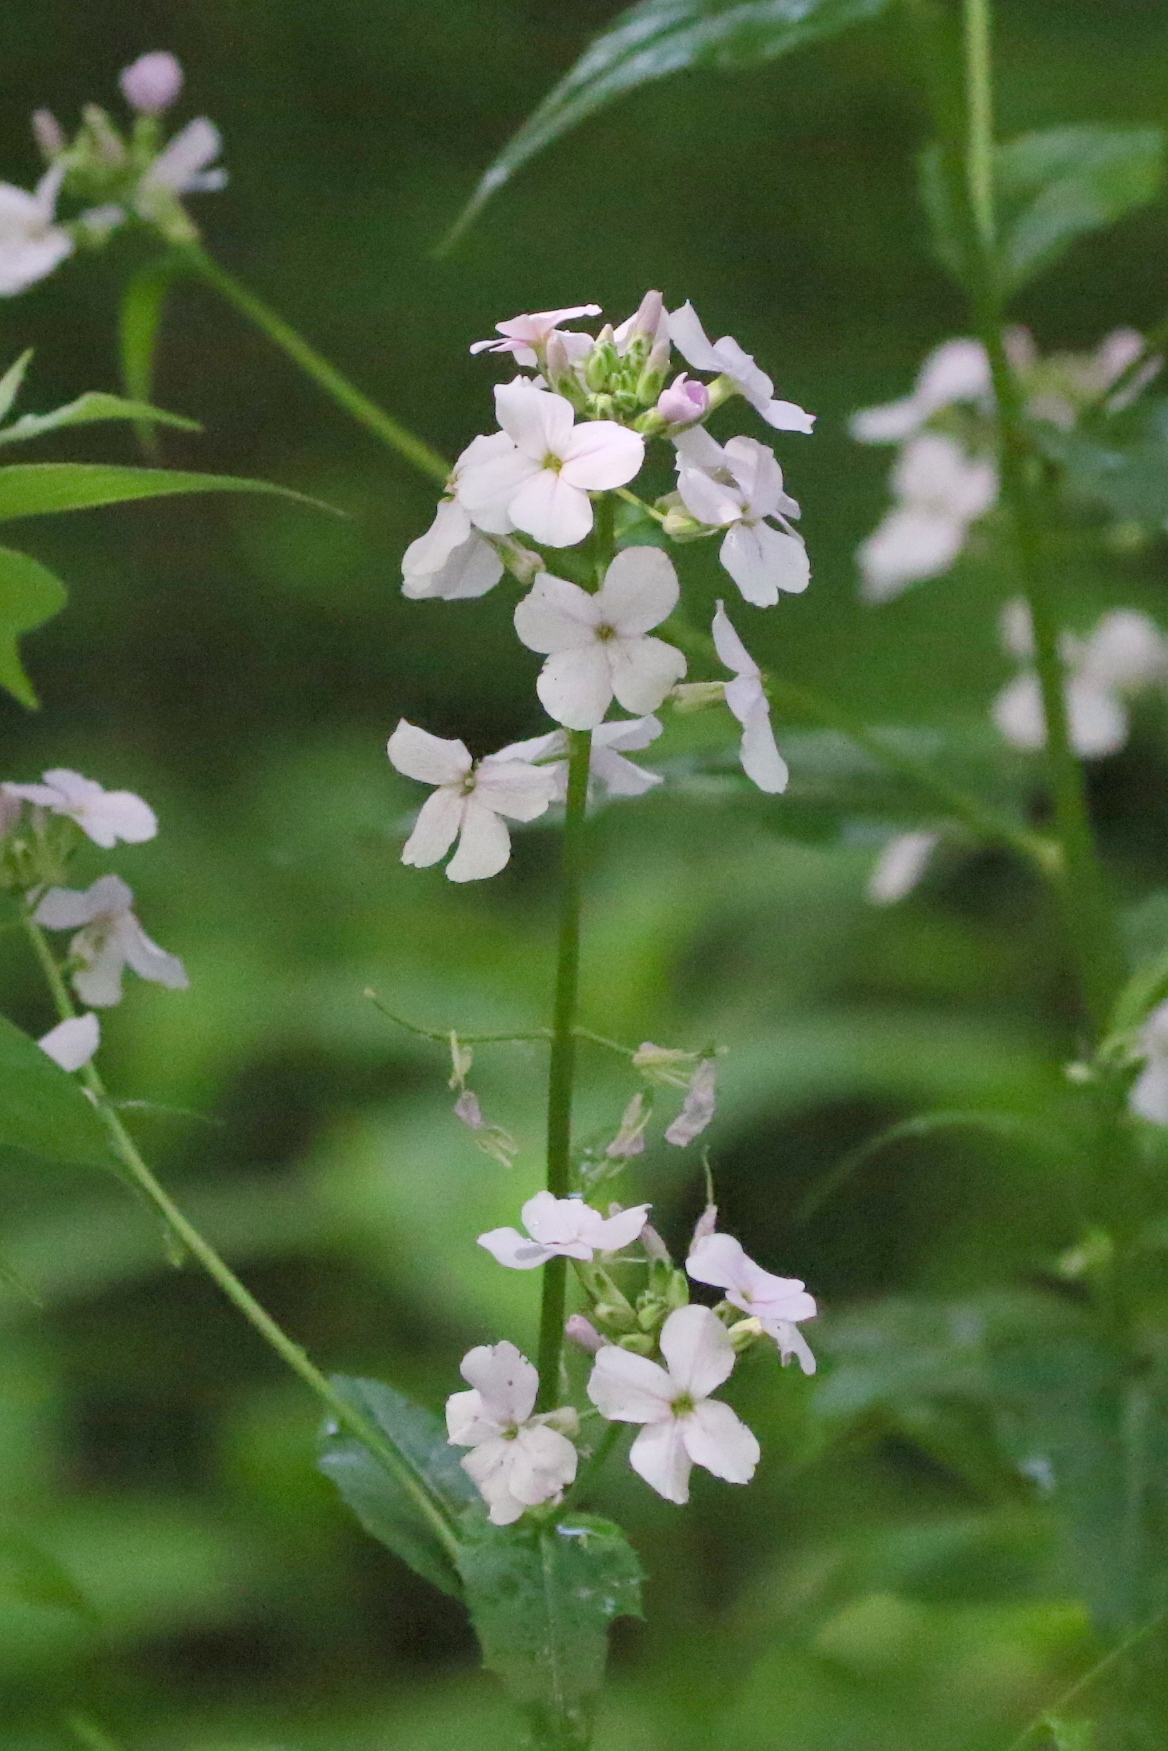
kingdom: Plantae
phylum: Tracheophyta
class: Magnoliopsida
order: Brassicales
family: Brassicaceae
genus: Hesperis
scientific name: Hesperis matronalis
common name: Dame's-violet
